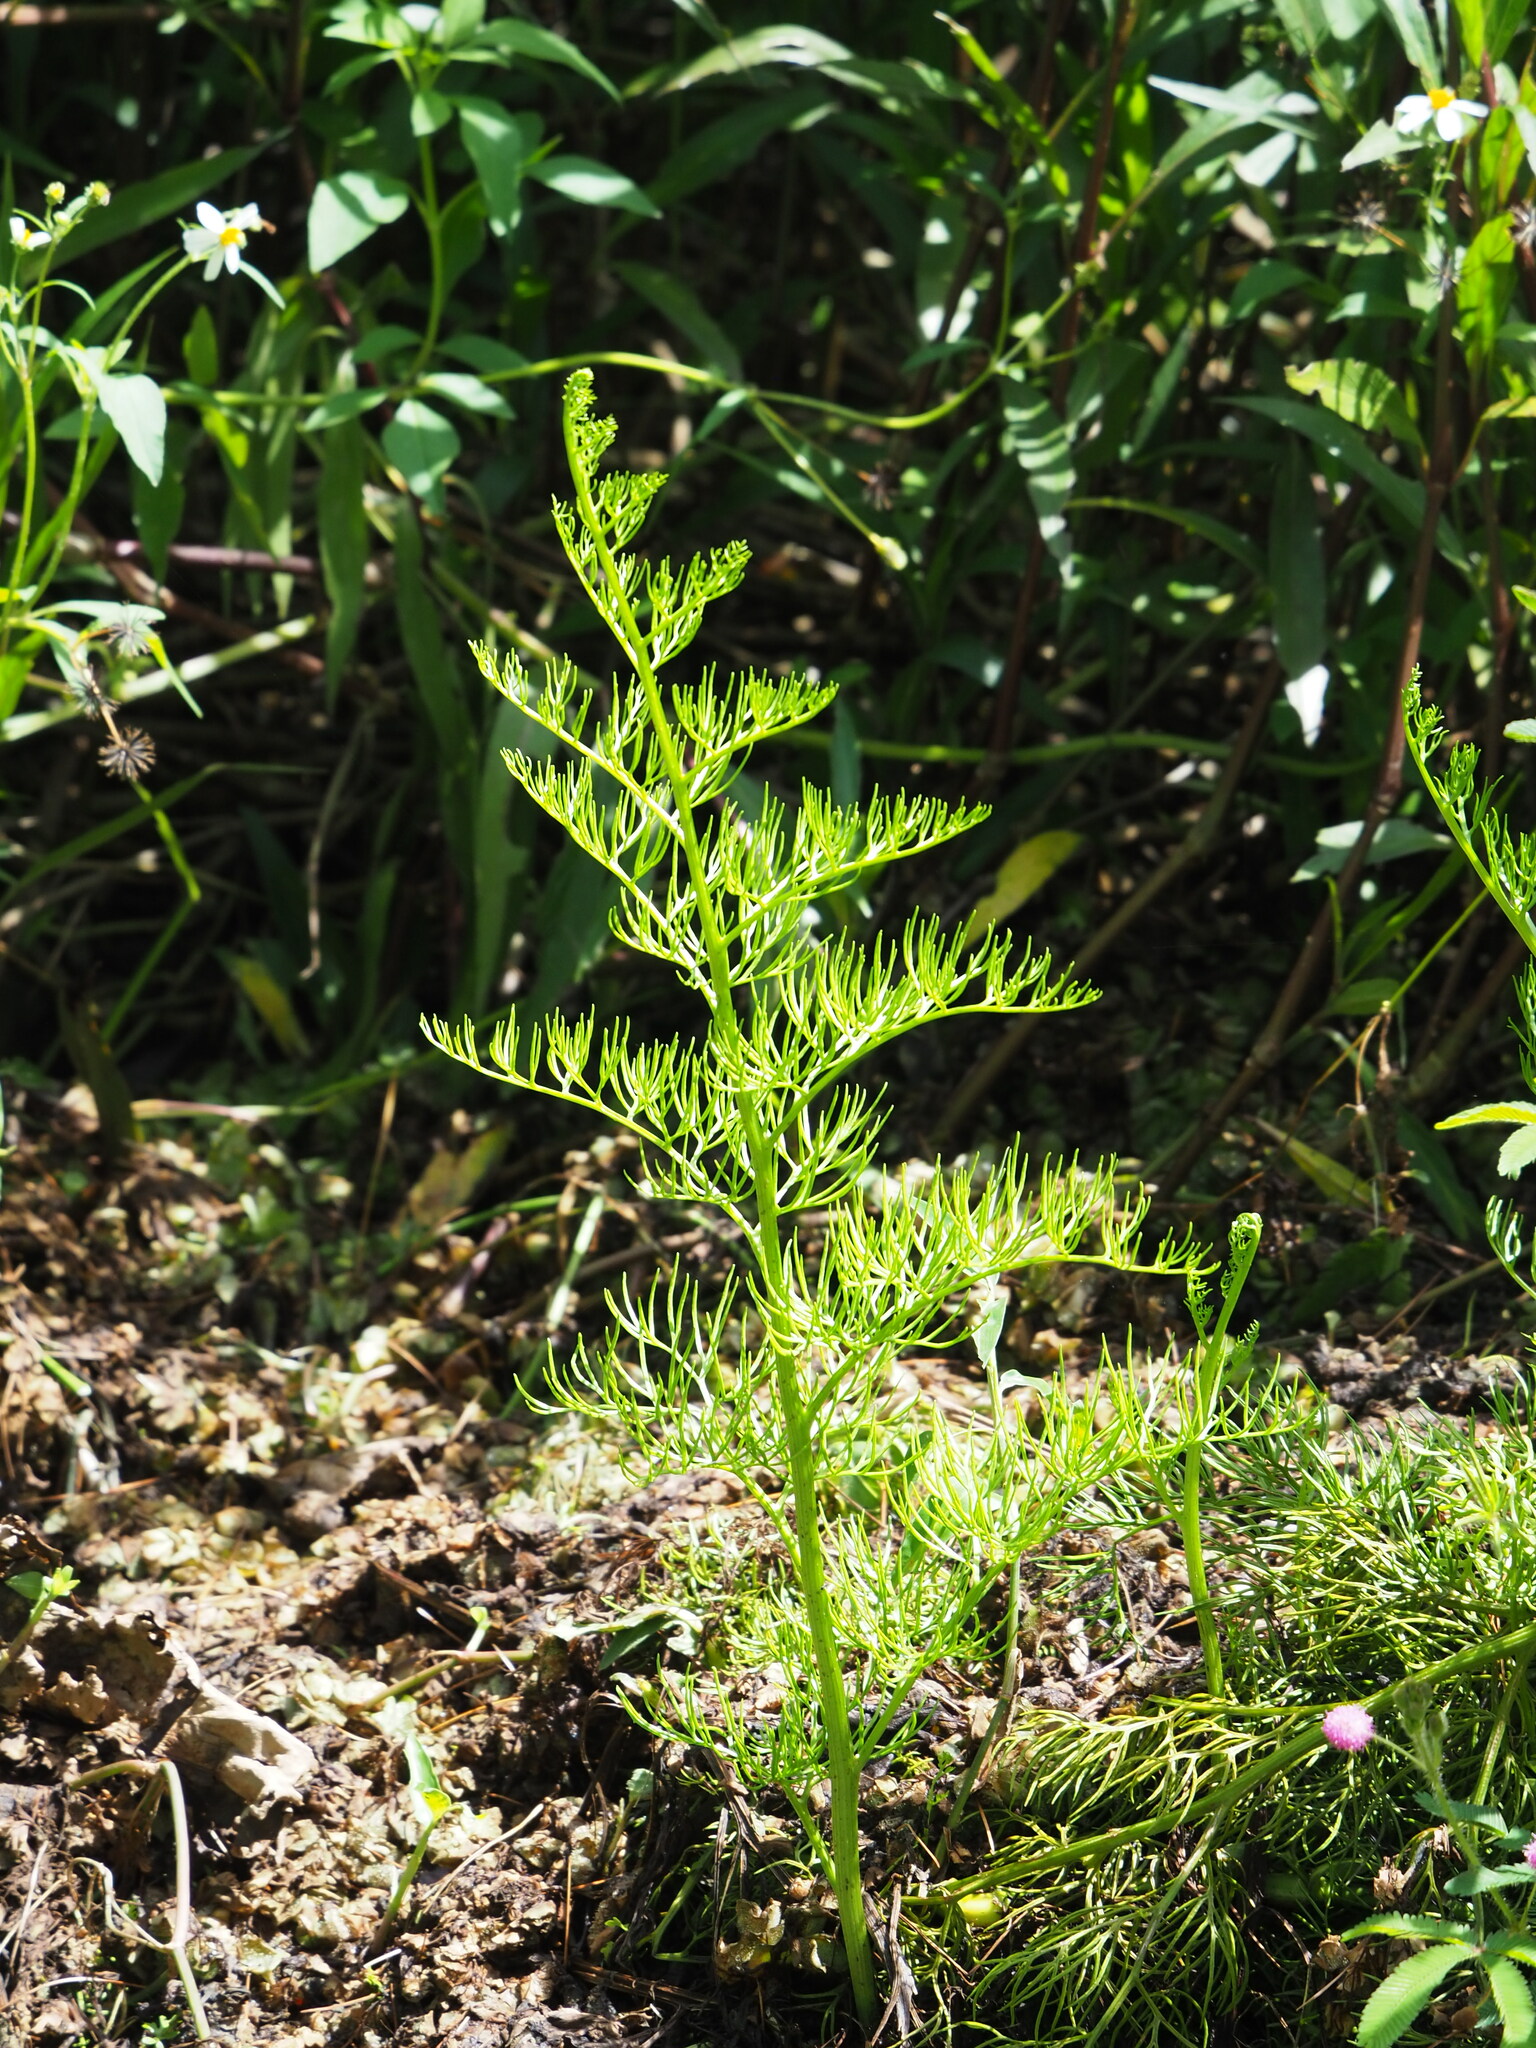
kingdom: Plantae
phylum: Tracheophyta
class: Polypodiopsida
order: Polypodiales
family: Pteridaceae
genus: Ceratopteris
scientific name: Ceratopteris thalictroides
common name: Water fern
